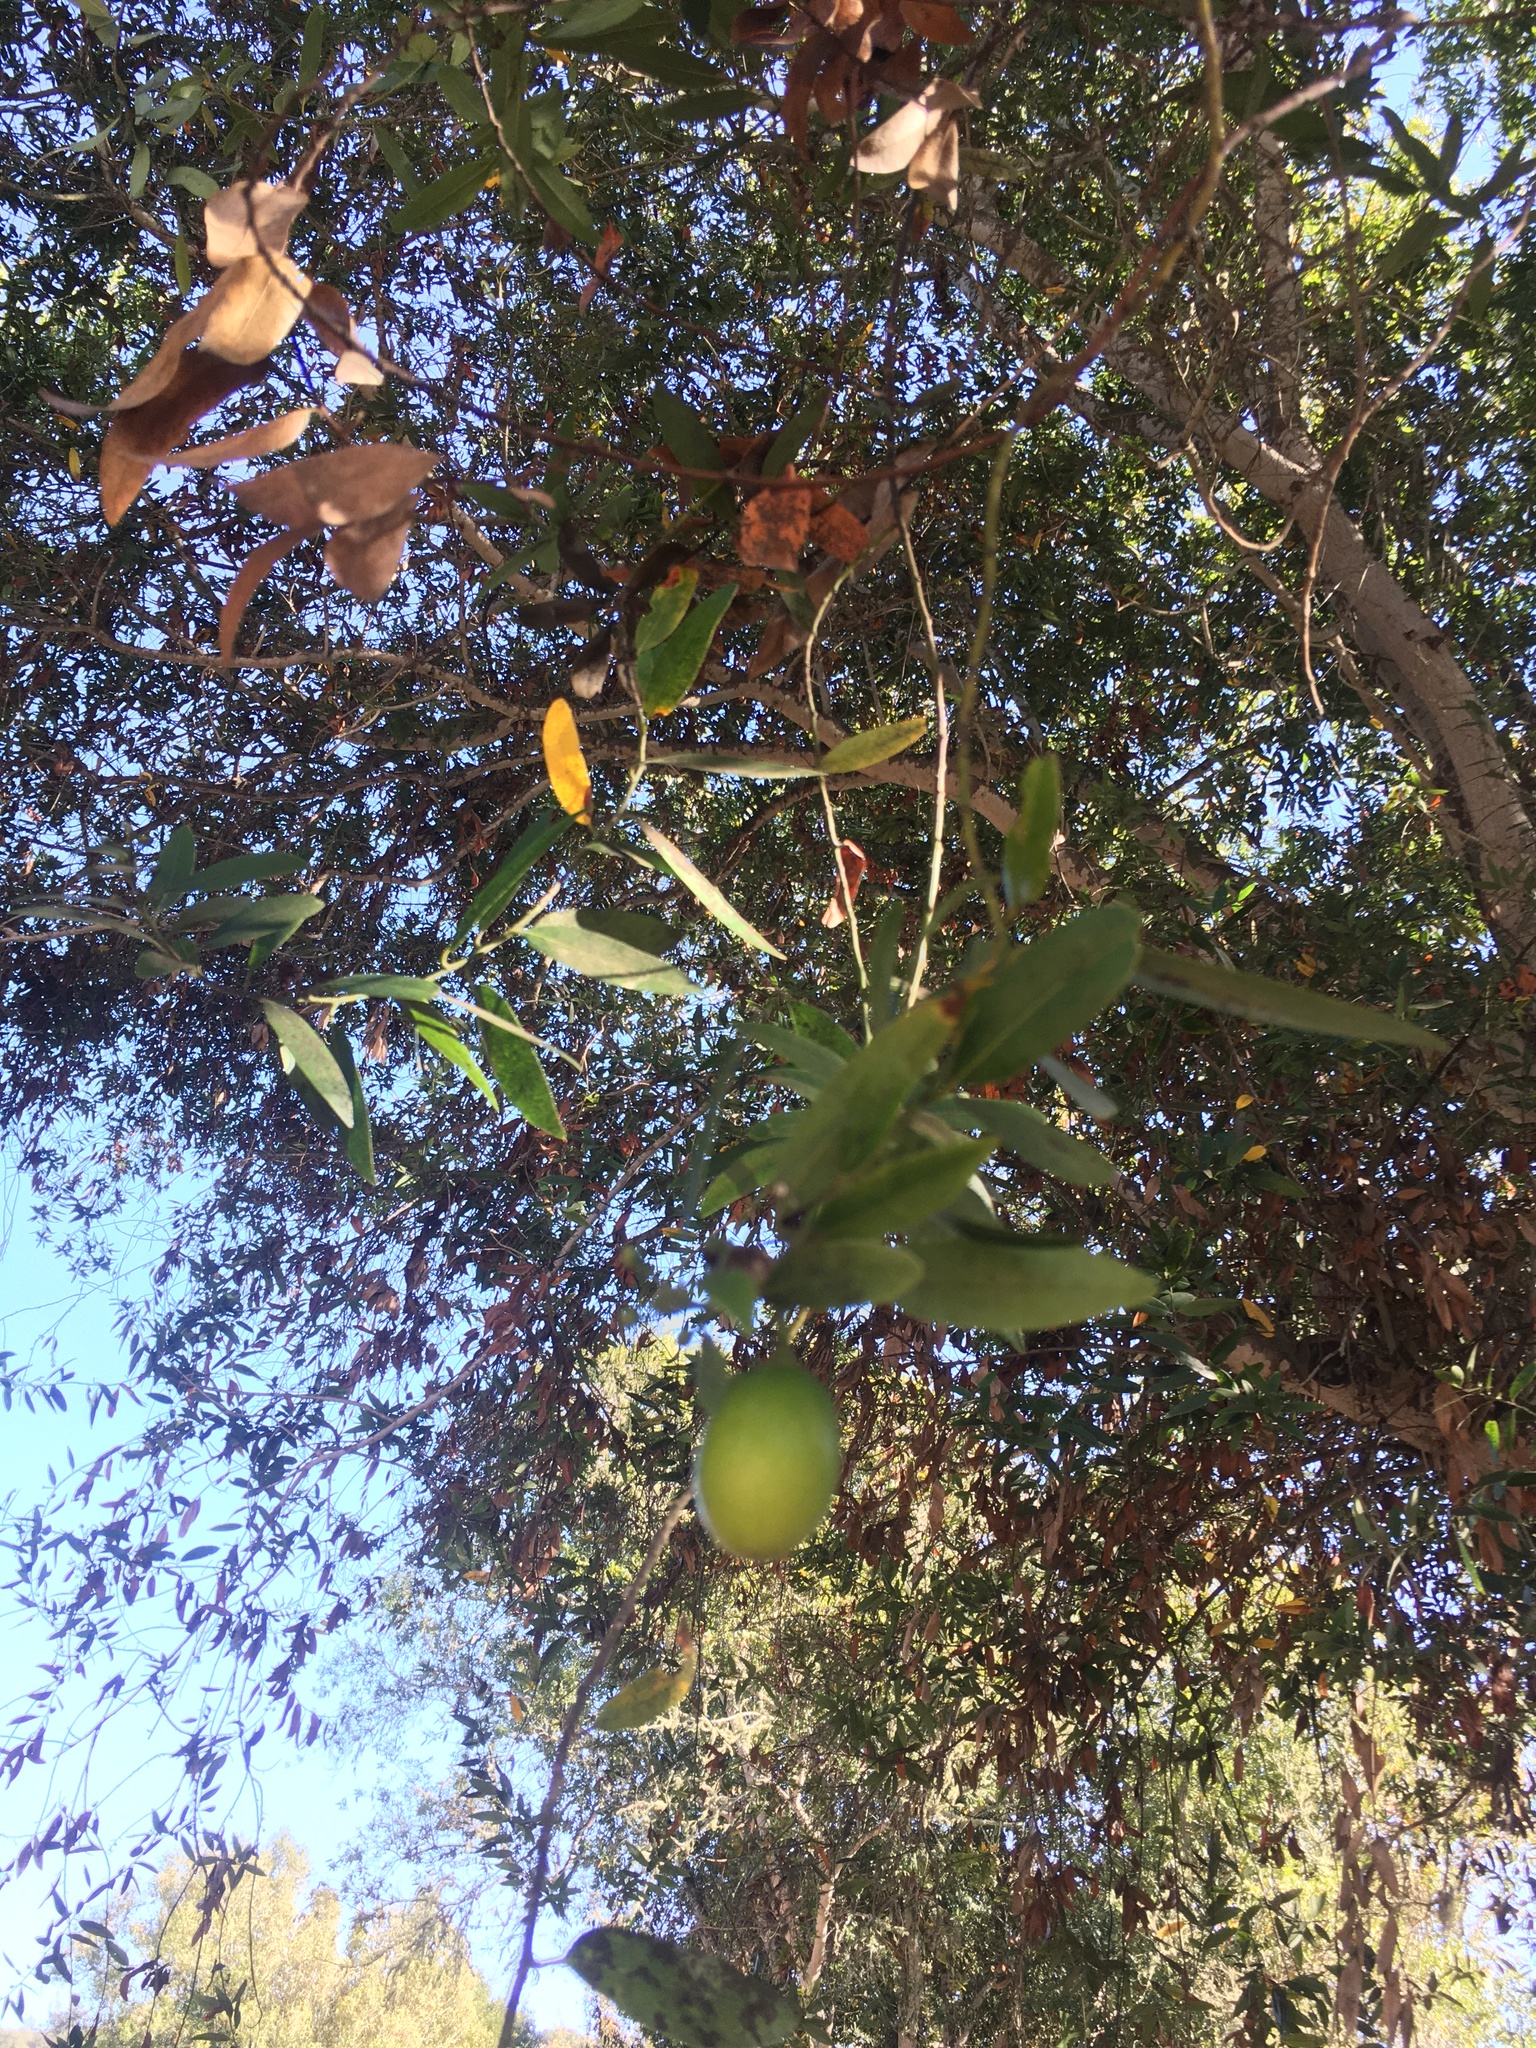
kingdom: Plantae
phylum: Tracheophyta
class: Magnoliopsida
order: Laurales
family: Lauraceae
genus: Umbellularia
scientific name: Umbellularia californica
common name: California bay
